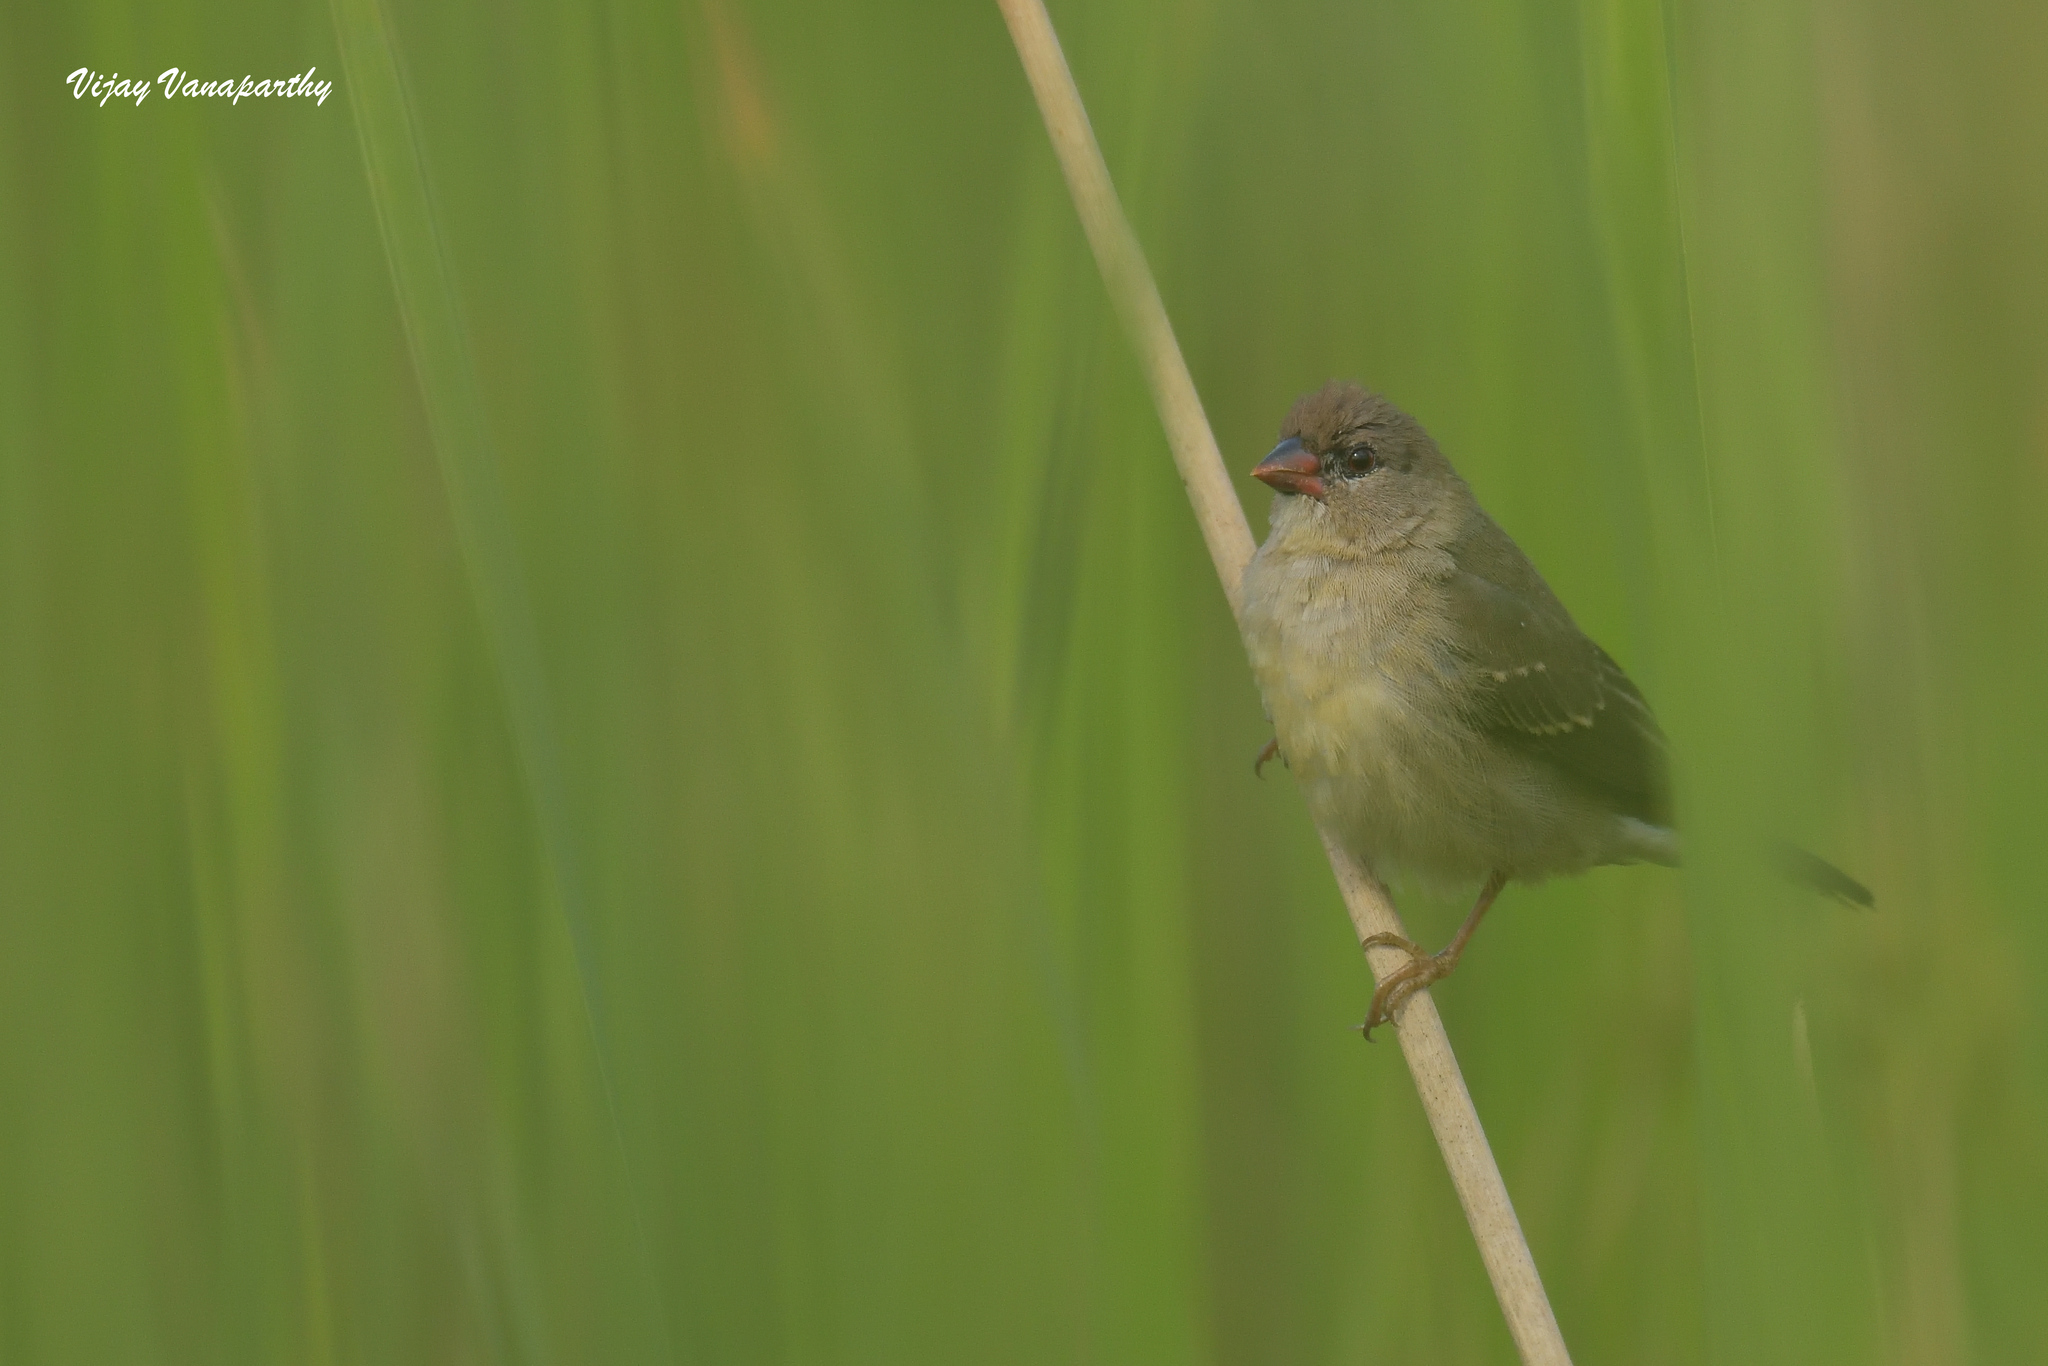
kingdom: Animalia
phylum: Chordata
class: Aves
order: Passeriformes
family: Estrildidae
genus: Amandava
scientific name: Amandava amandava
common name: Red avadavat
